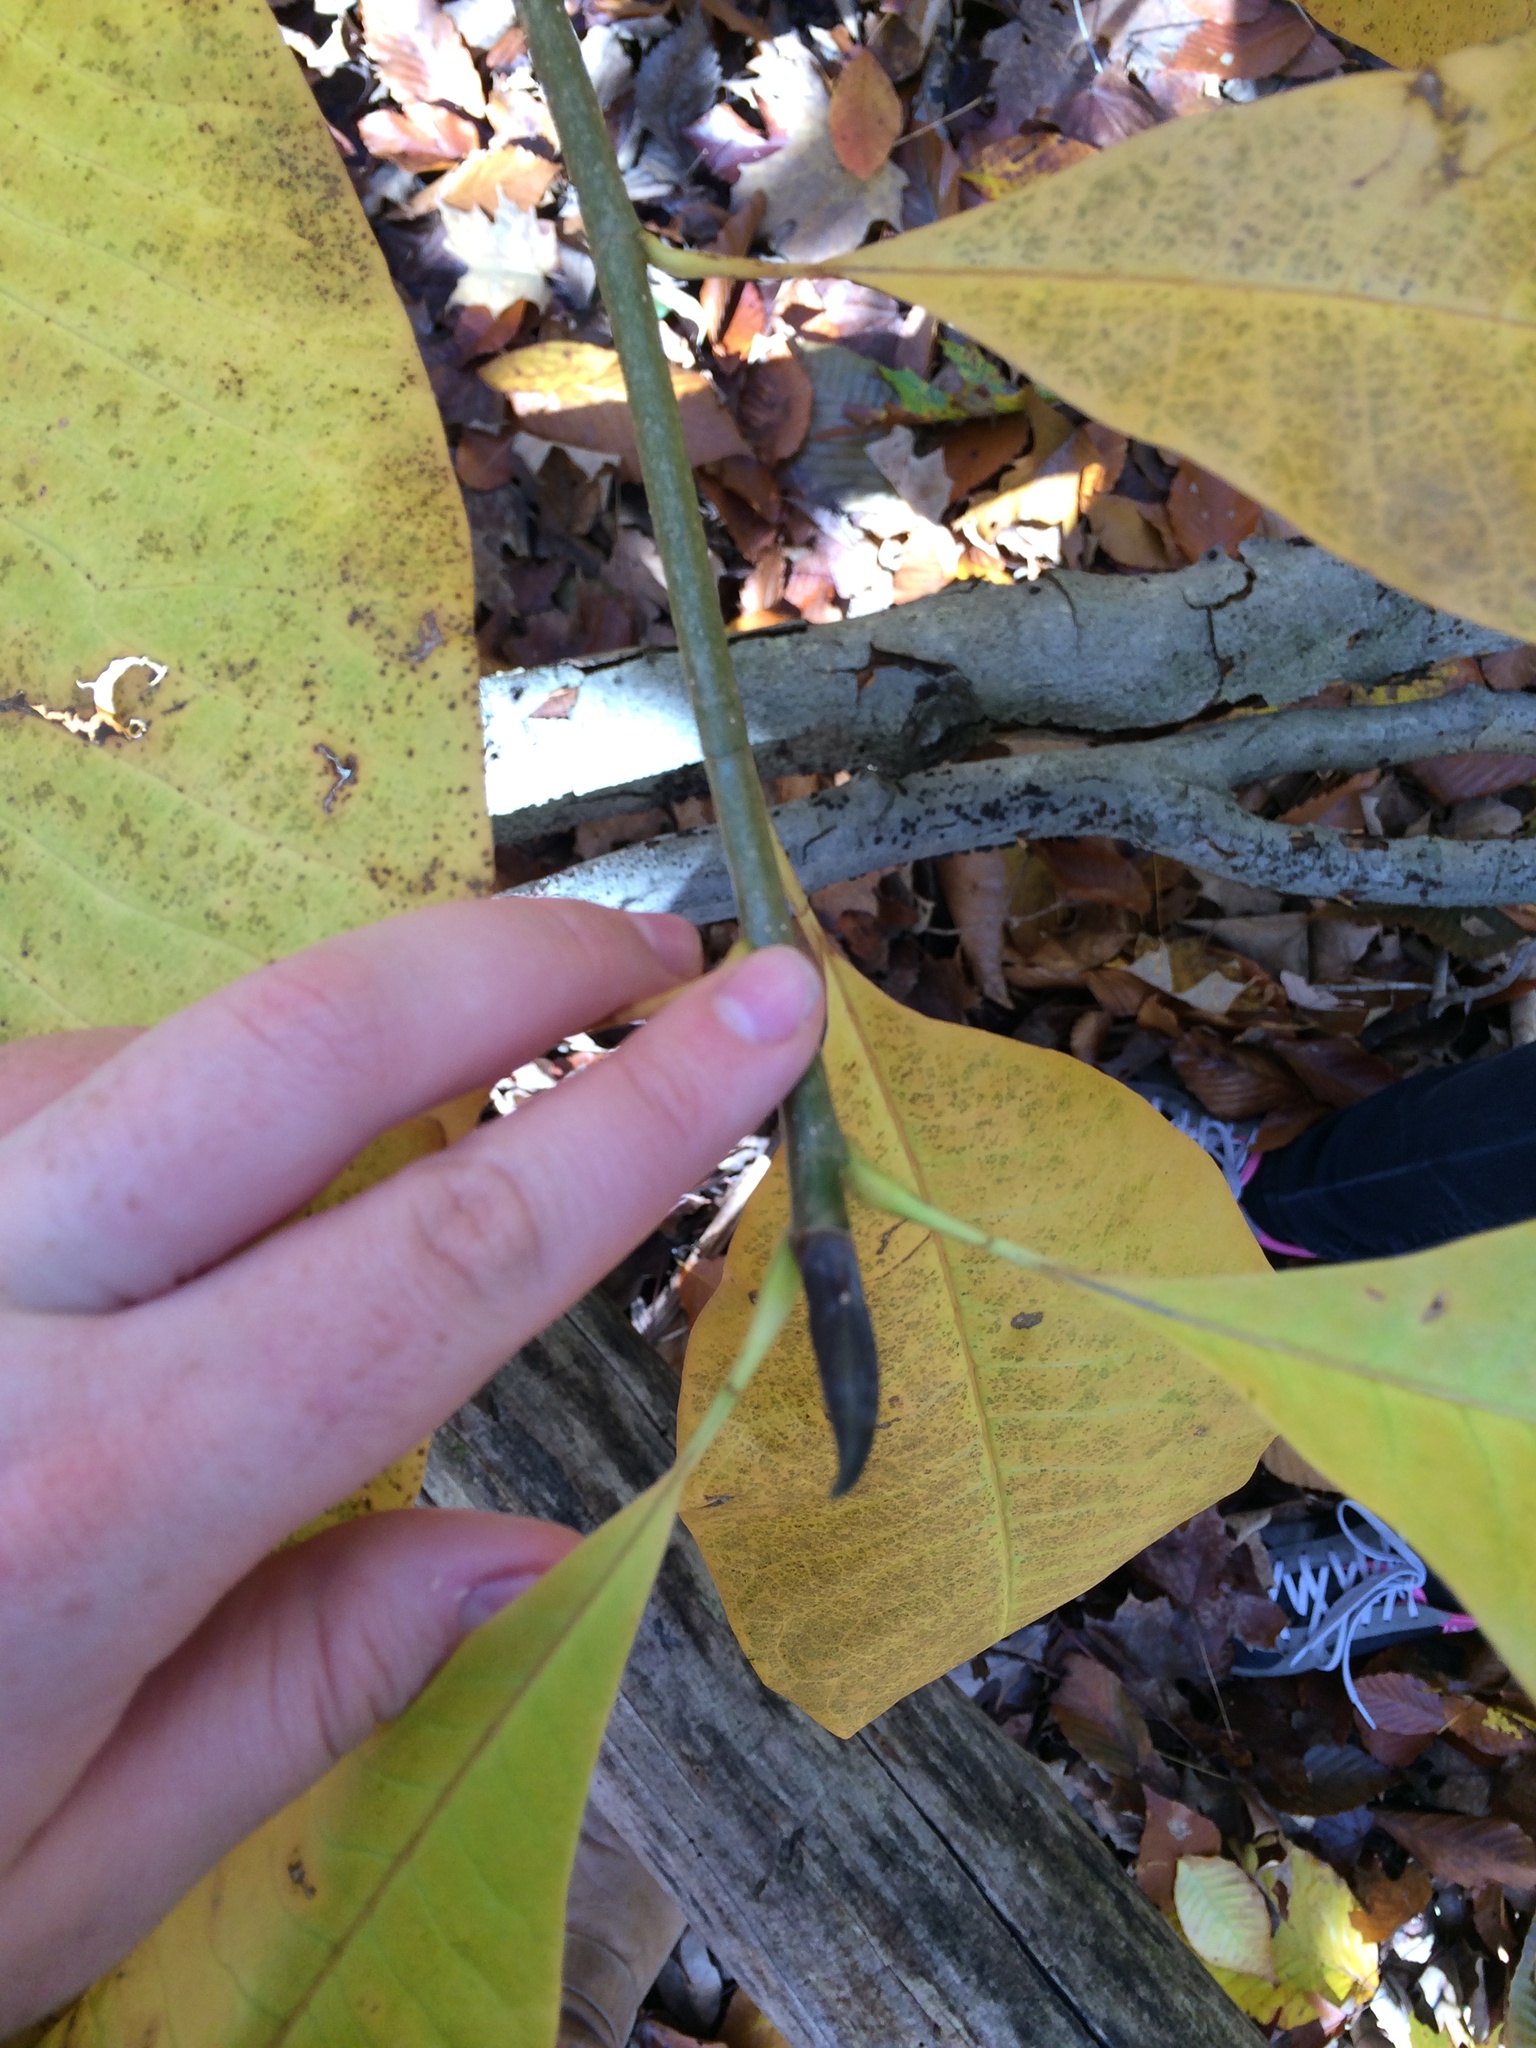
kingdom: Plantae
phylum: Tracheophyta
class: Magnoliopsida
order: Magnoliales
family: Magnoliaceae
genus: Magnolia
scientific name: Magnolia tripetala
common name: Umbrella magnolia
